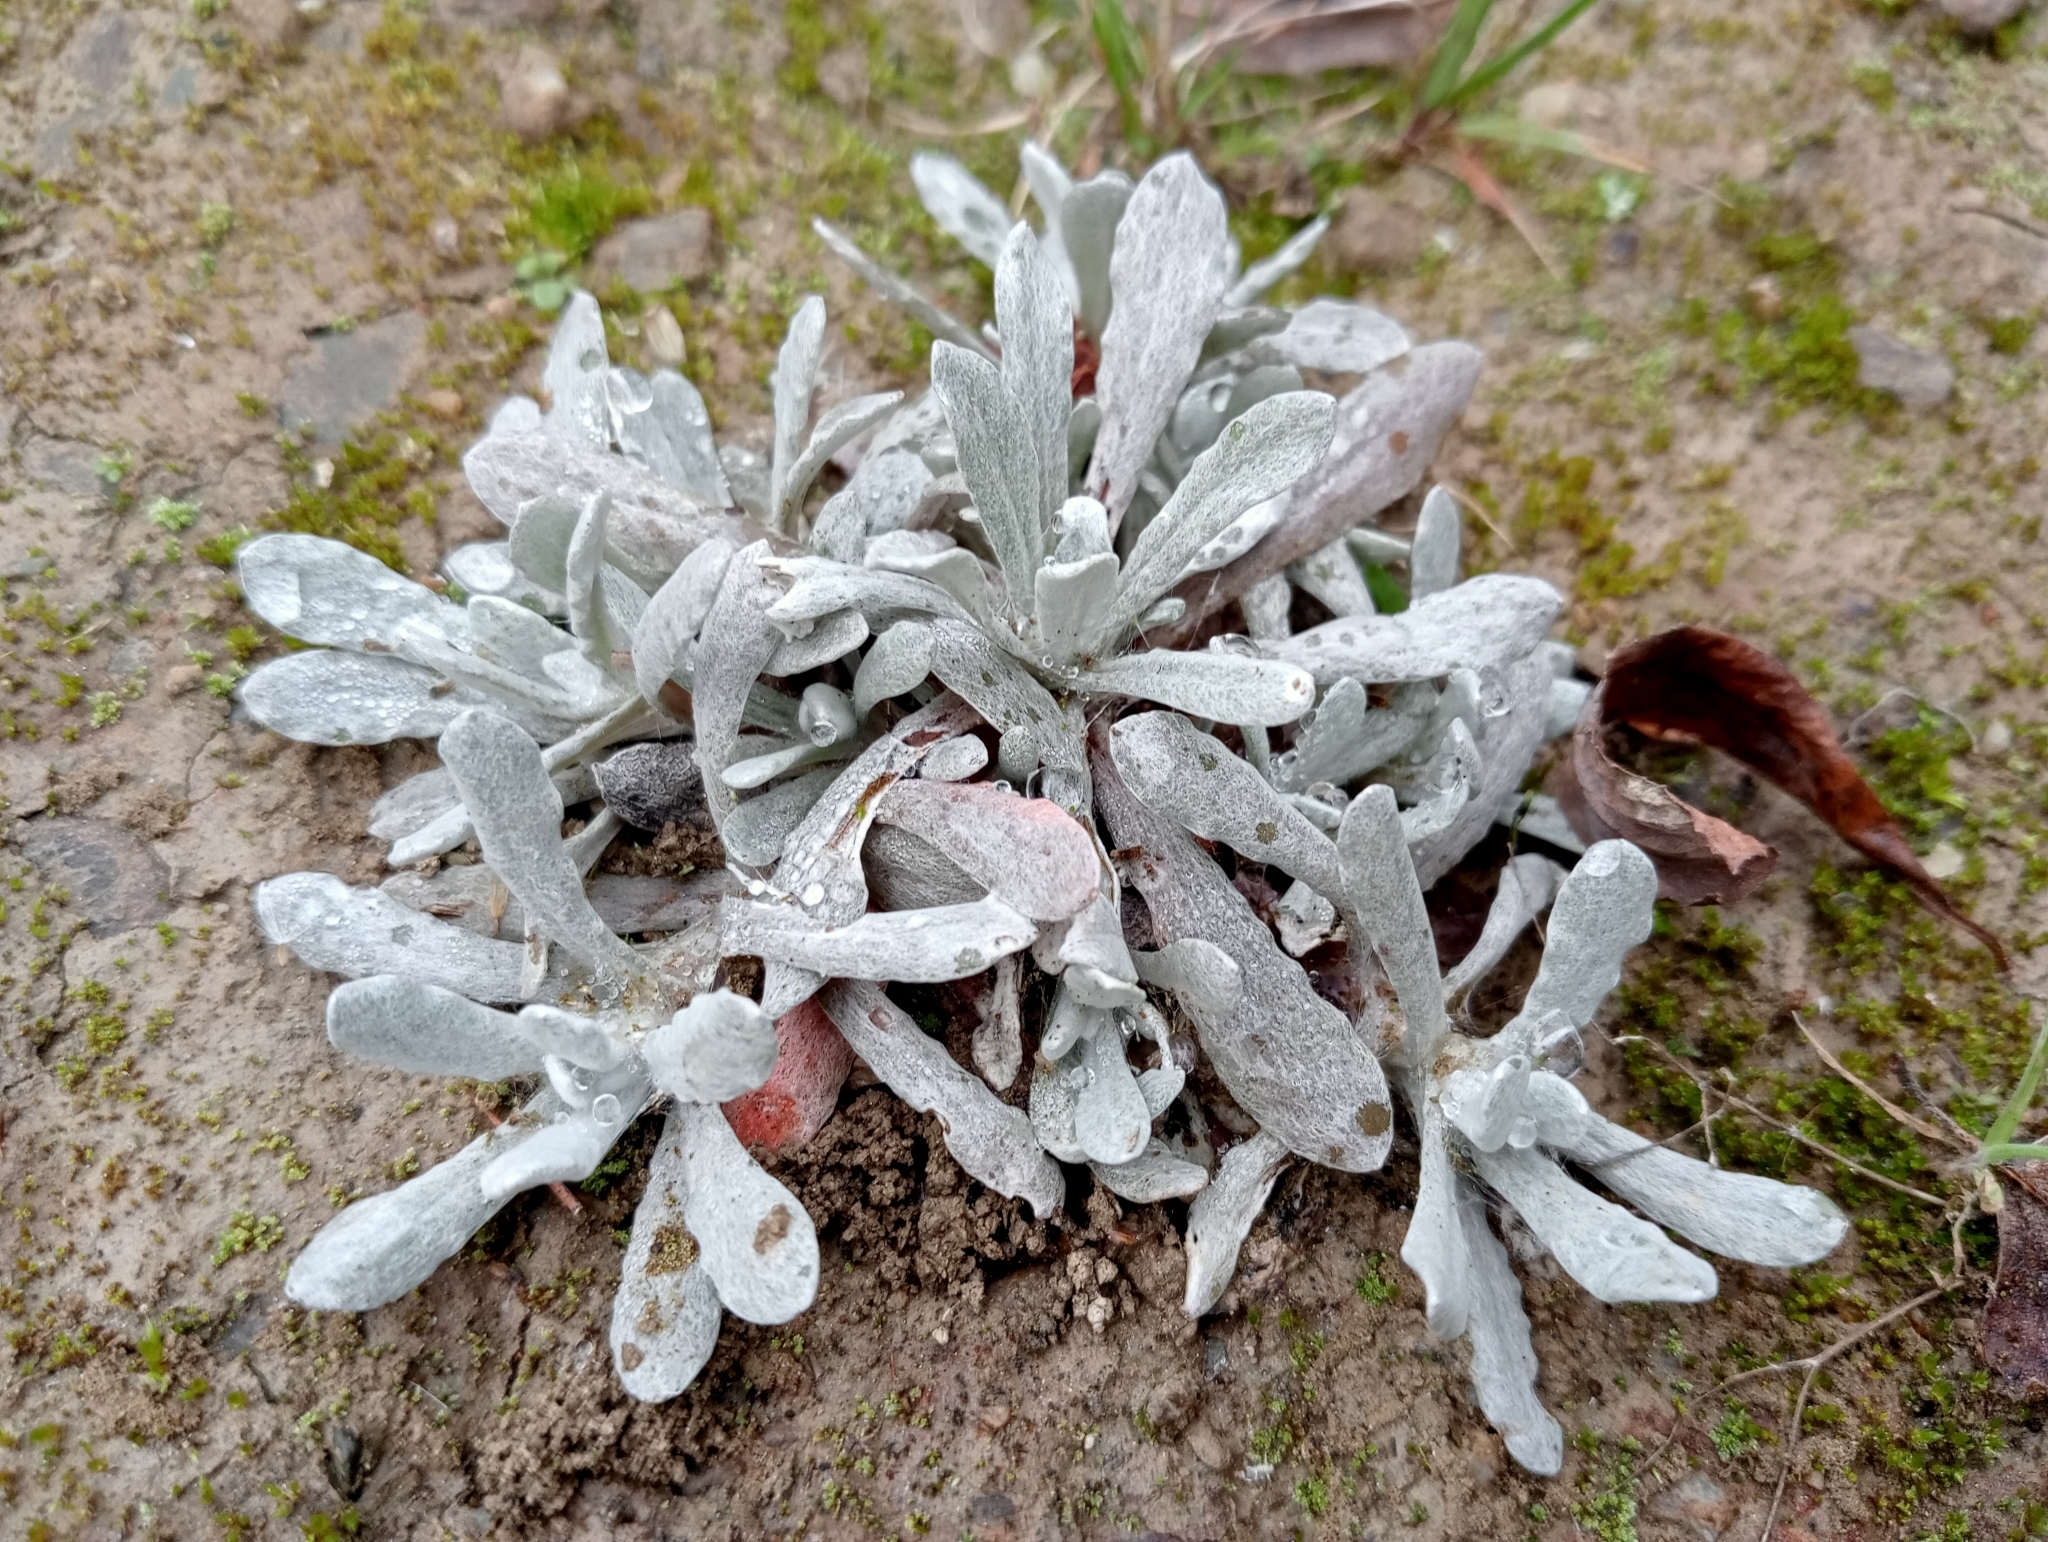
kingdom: Plantae
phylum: Tracheophyta
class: Magnoliopsida
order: Asterales
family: Asteraceae
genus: Helichrysum
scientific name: Helichrysum luteoalbum
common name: Daisy
